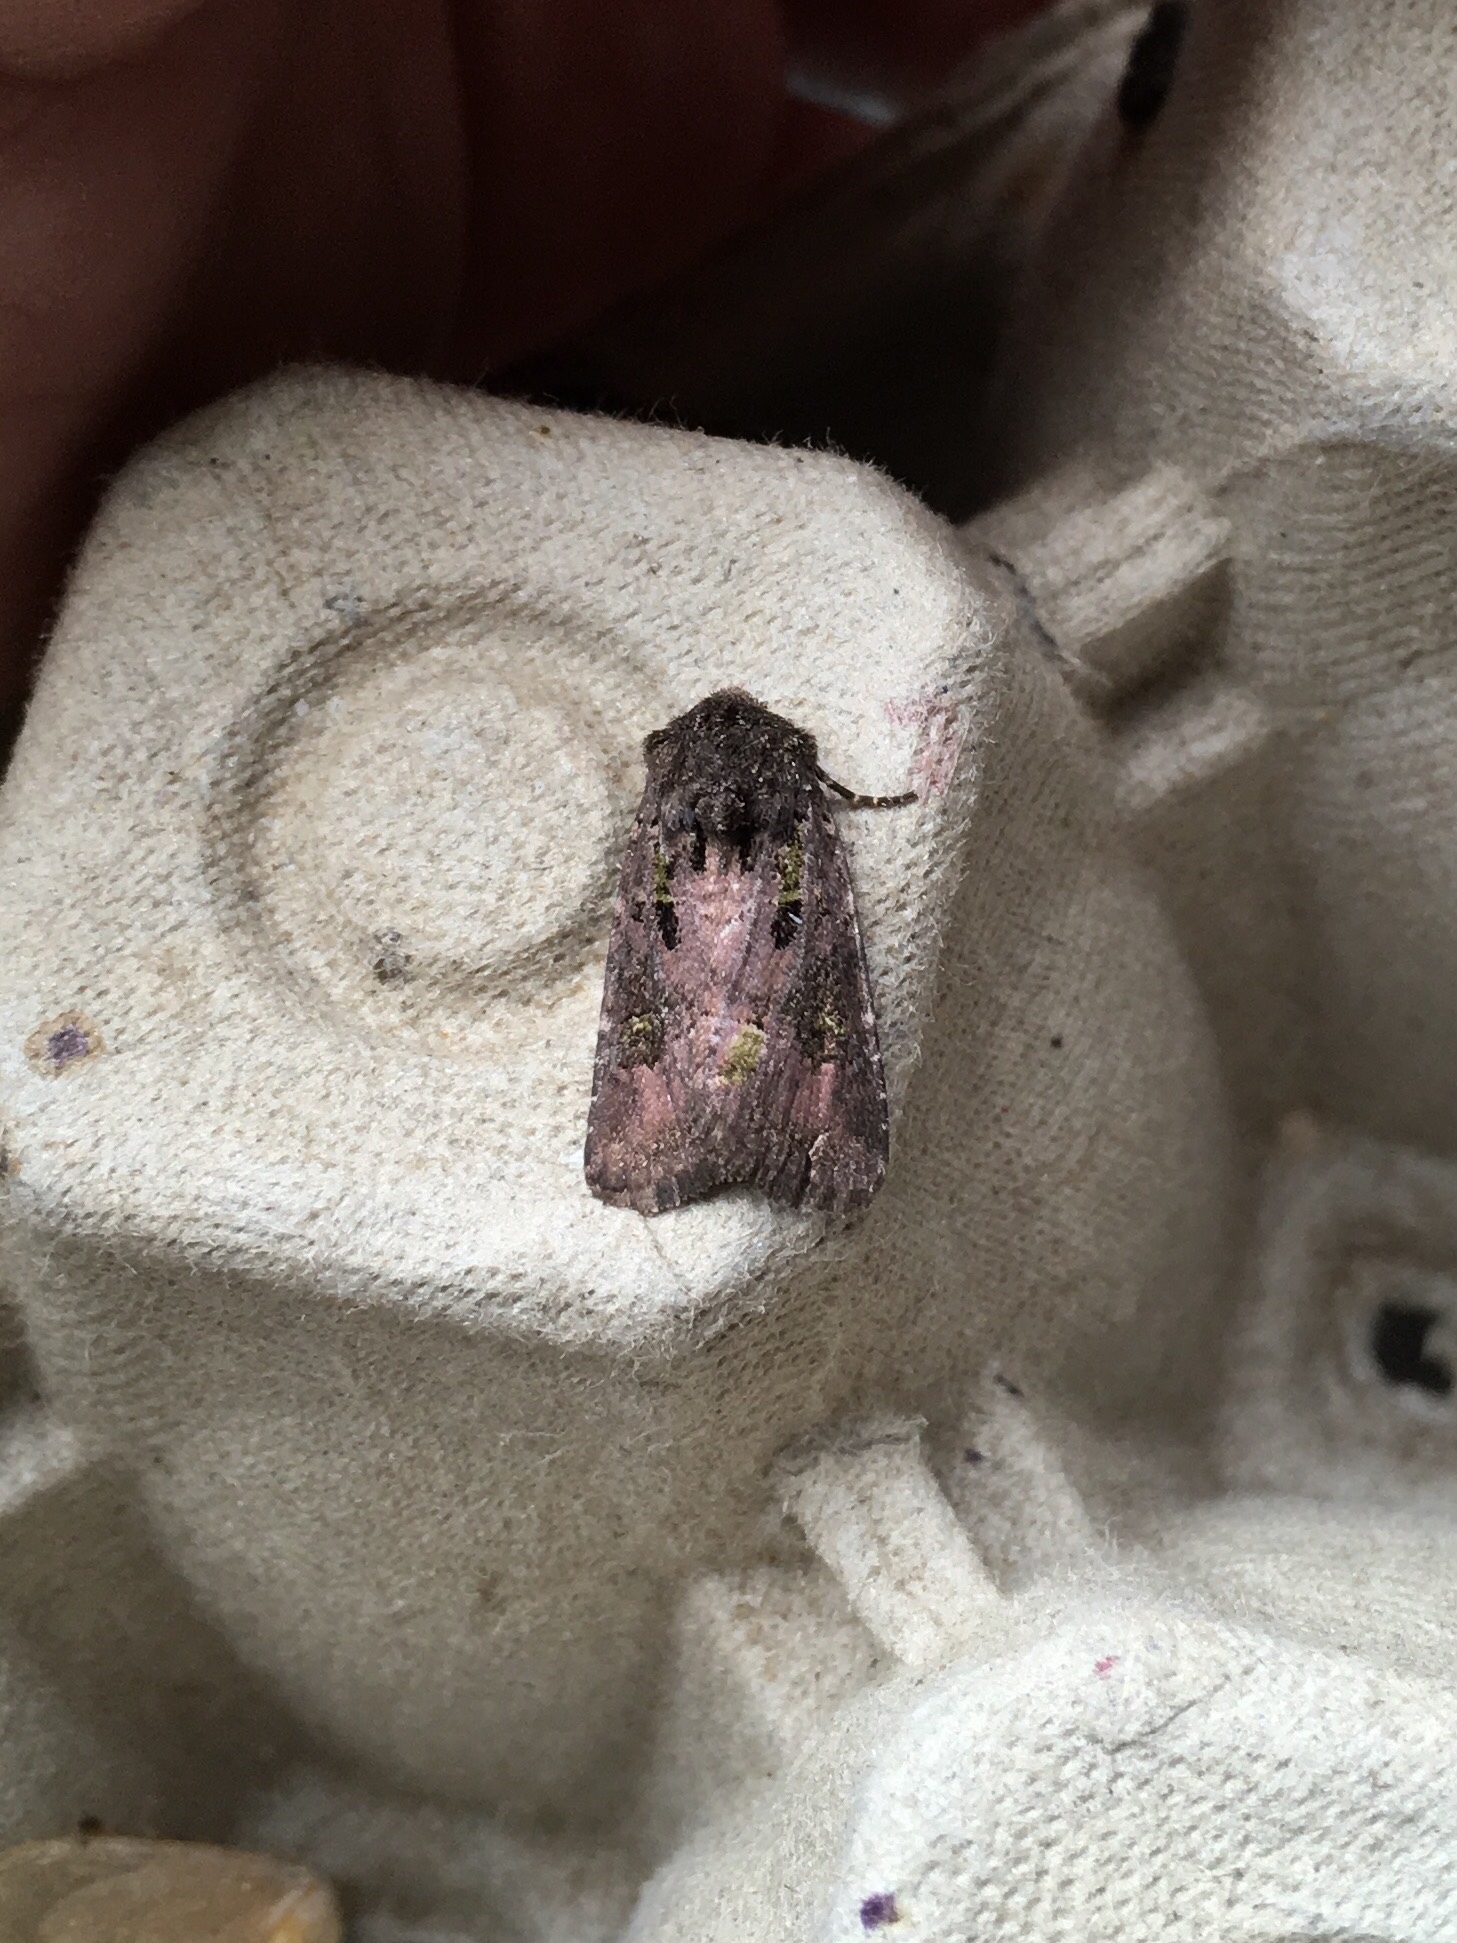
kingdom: Animalia
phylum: Arthropoda
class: Insecta
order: Lepidoptera
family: Noctuidae
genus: Lacinipolia
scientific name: Lacinipolia renigera
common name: Kidney-spotted minor
